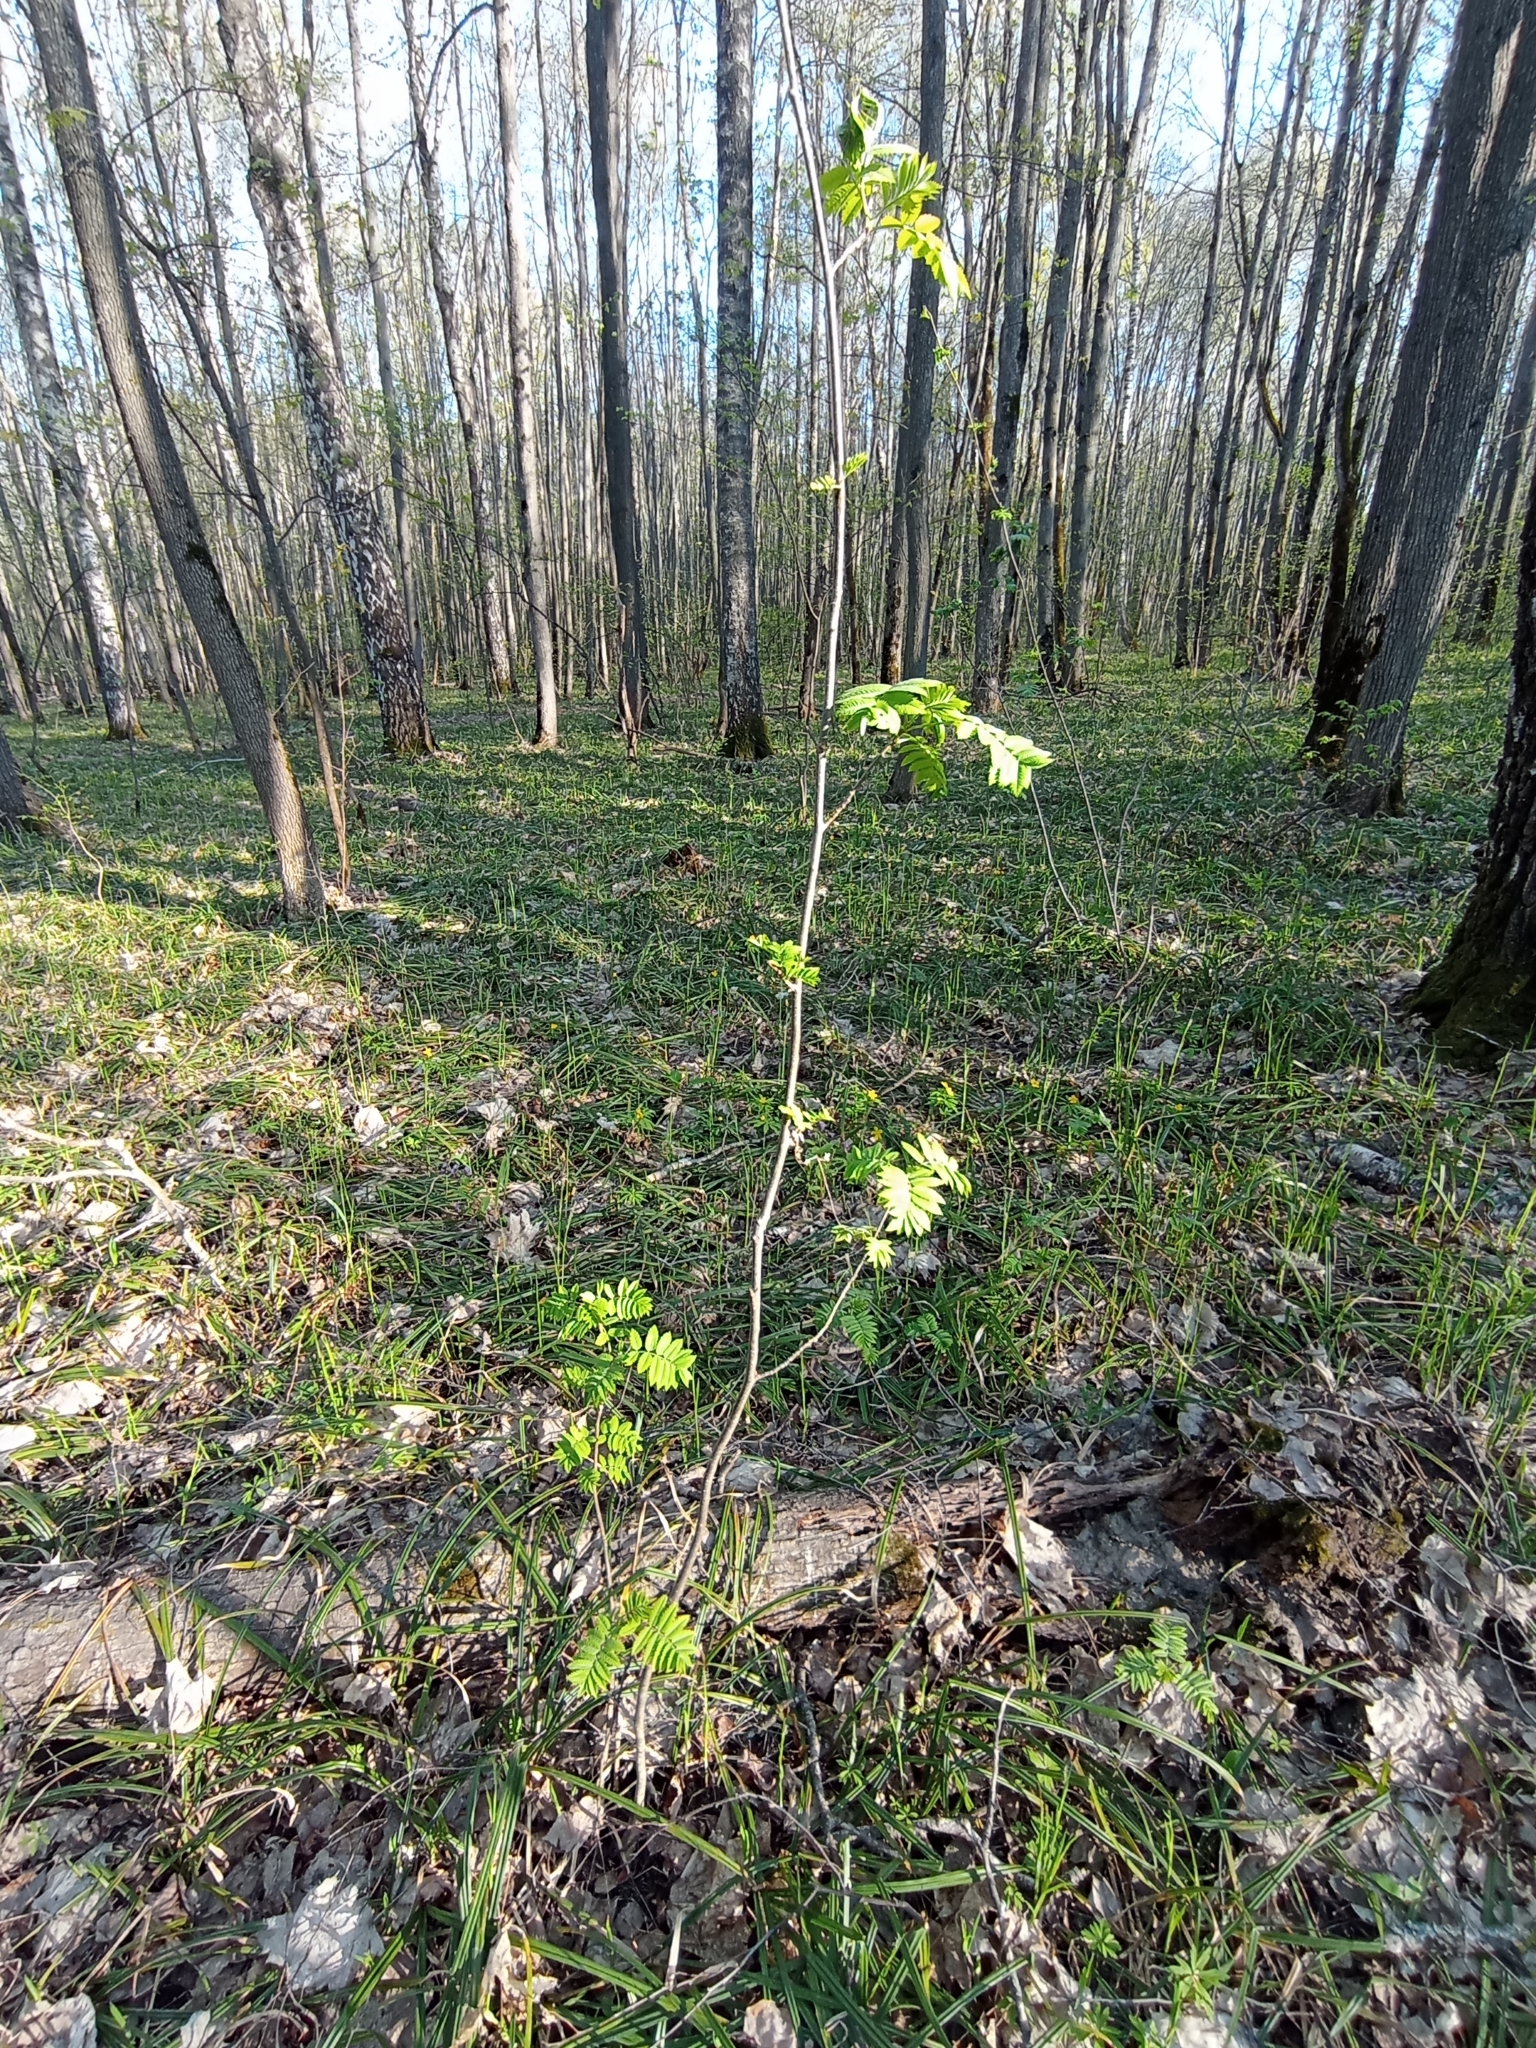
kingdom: Plantae
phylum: Tracheophyta
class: Magnoliopsida
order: Rosales
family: Rosaceae
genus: Sorbus
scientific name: Sorbus aucuparia
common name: Rowan
